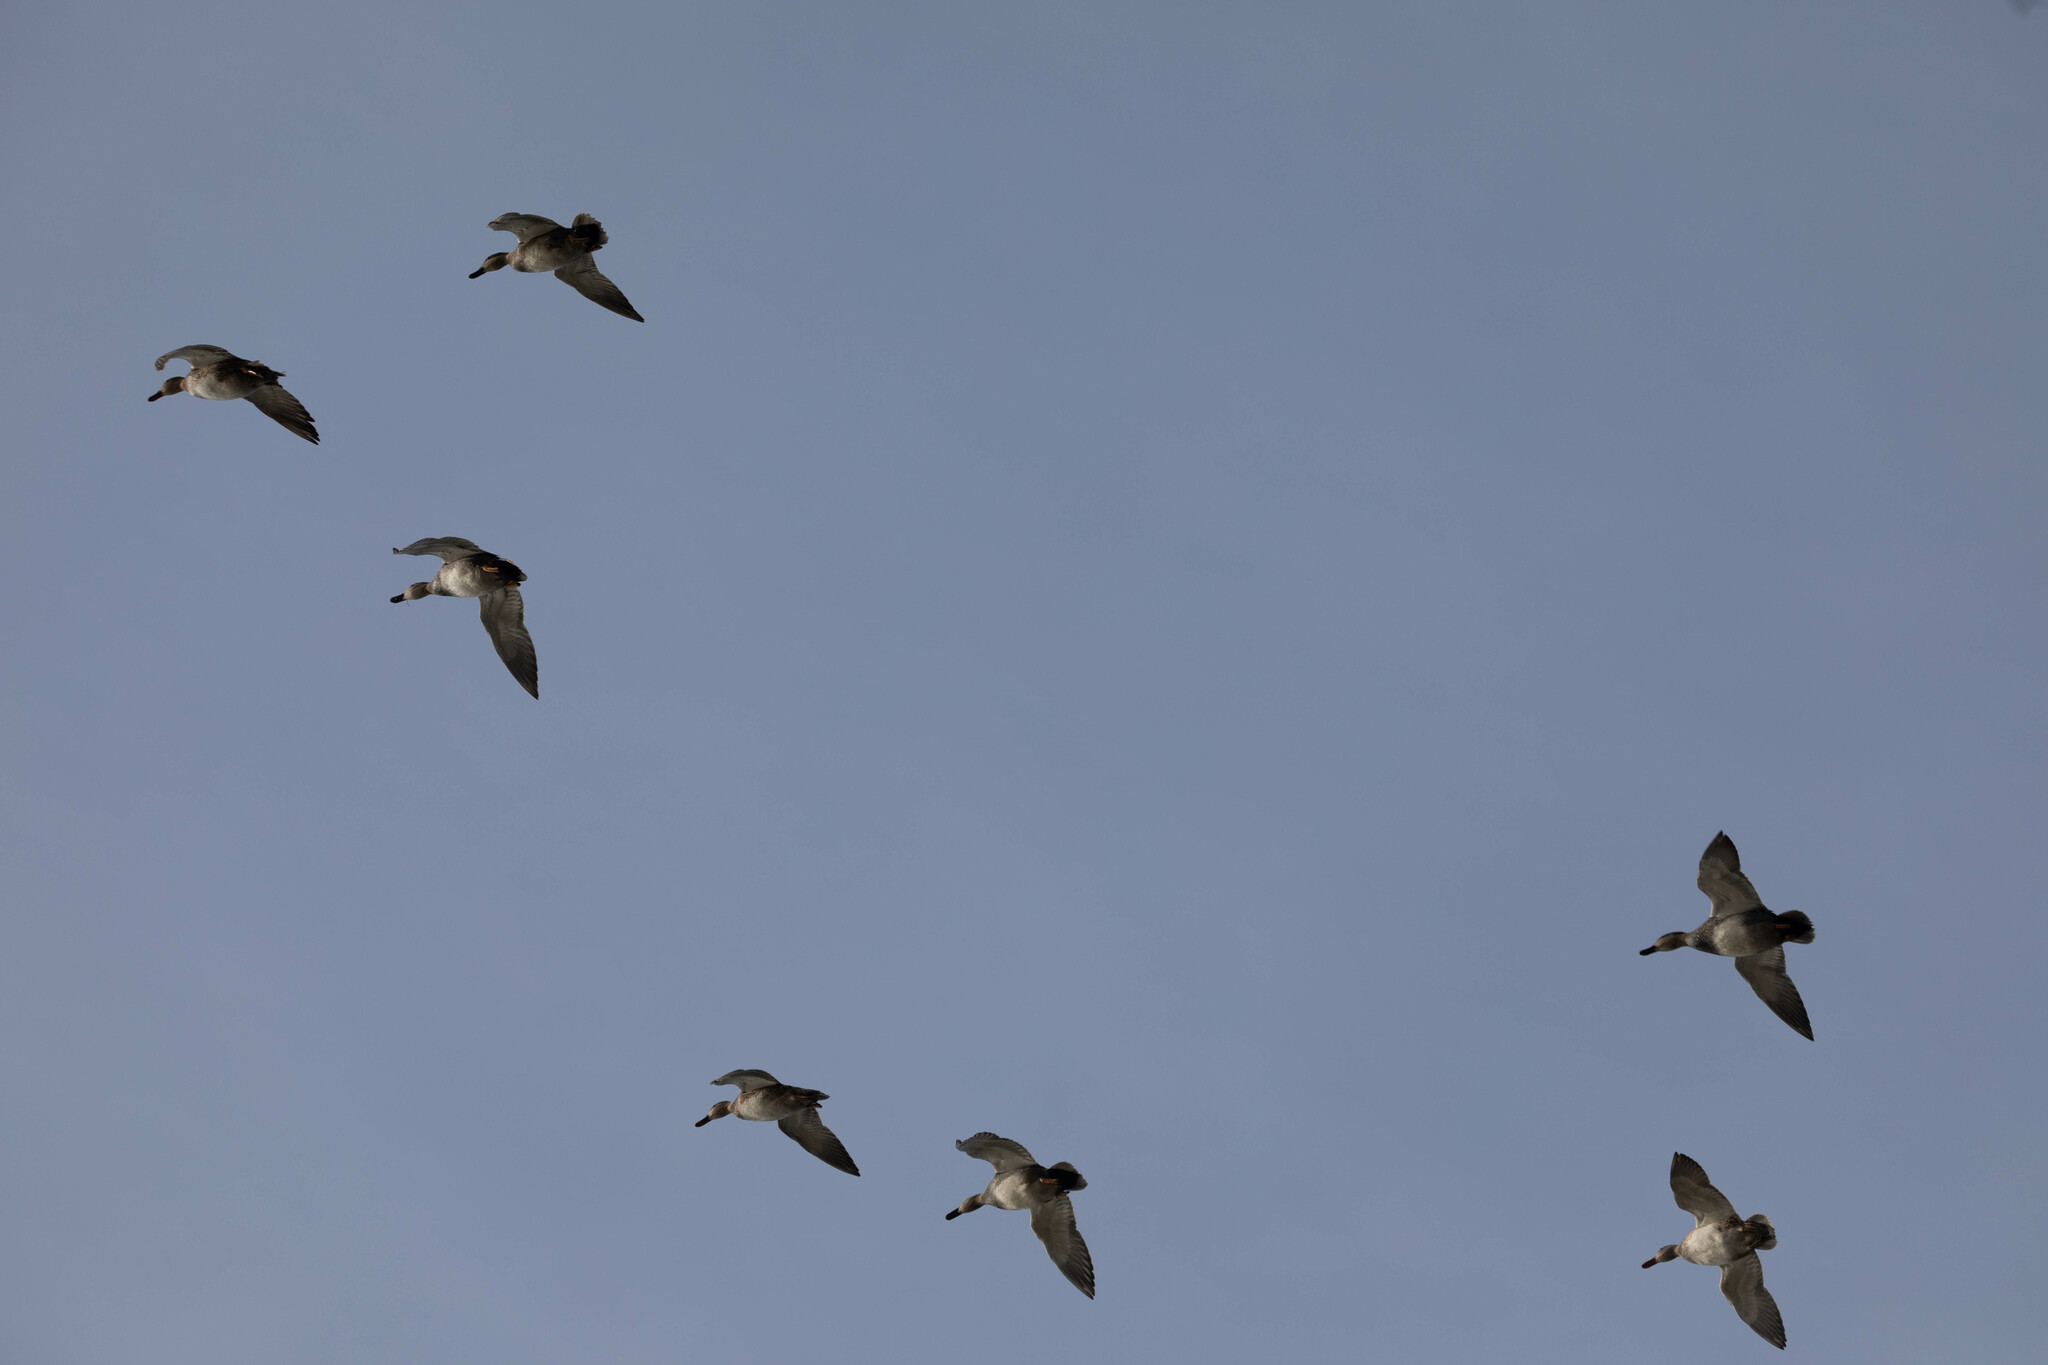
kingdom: Animalia
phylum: Chordata
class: Aves
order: Anseriformes
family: Anatidae
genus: Mareca
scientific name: Mareca strepera
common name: Gadwall
